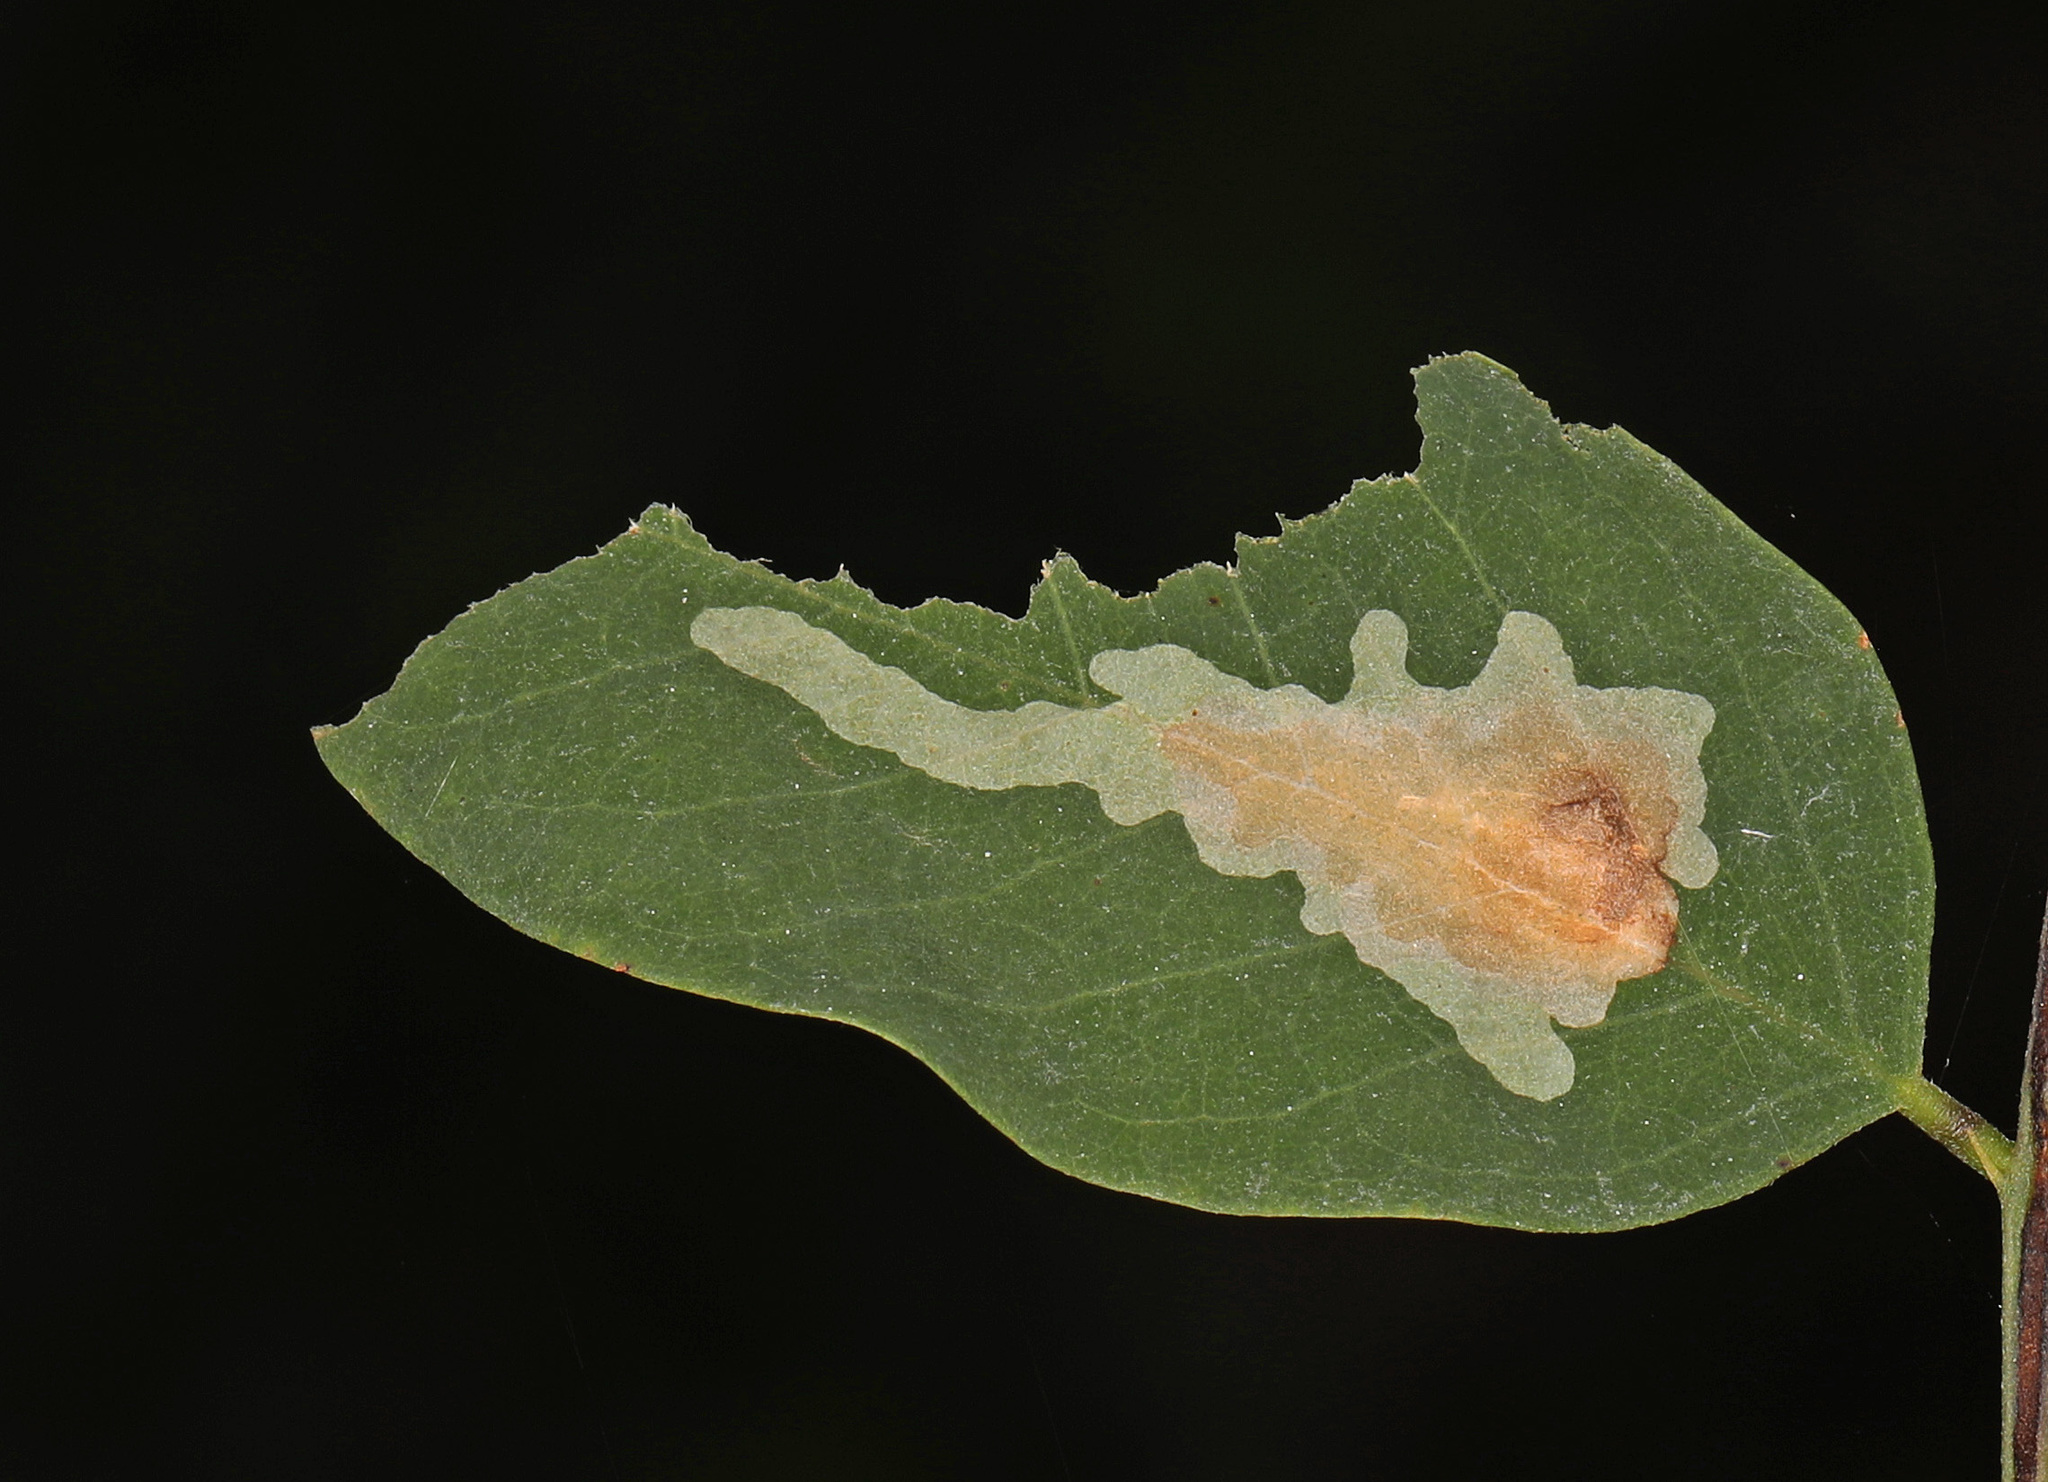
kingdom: Animalia
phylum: Arthropoda
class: Insecta
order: Lepidoptera
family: Gracillariidae
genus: Parectopa
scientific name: Parectopa robiniella
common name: Locust digitate leafminer
